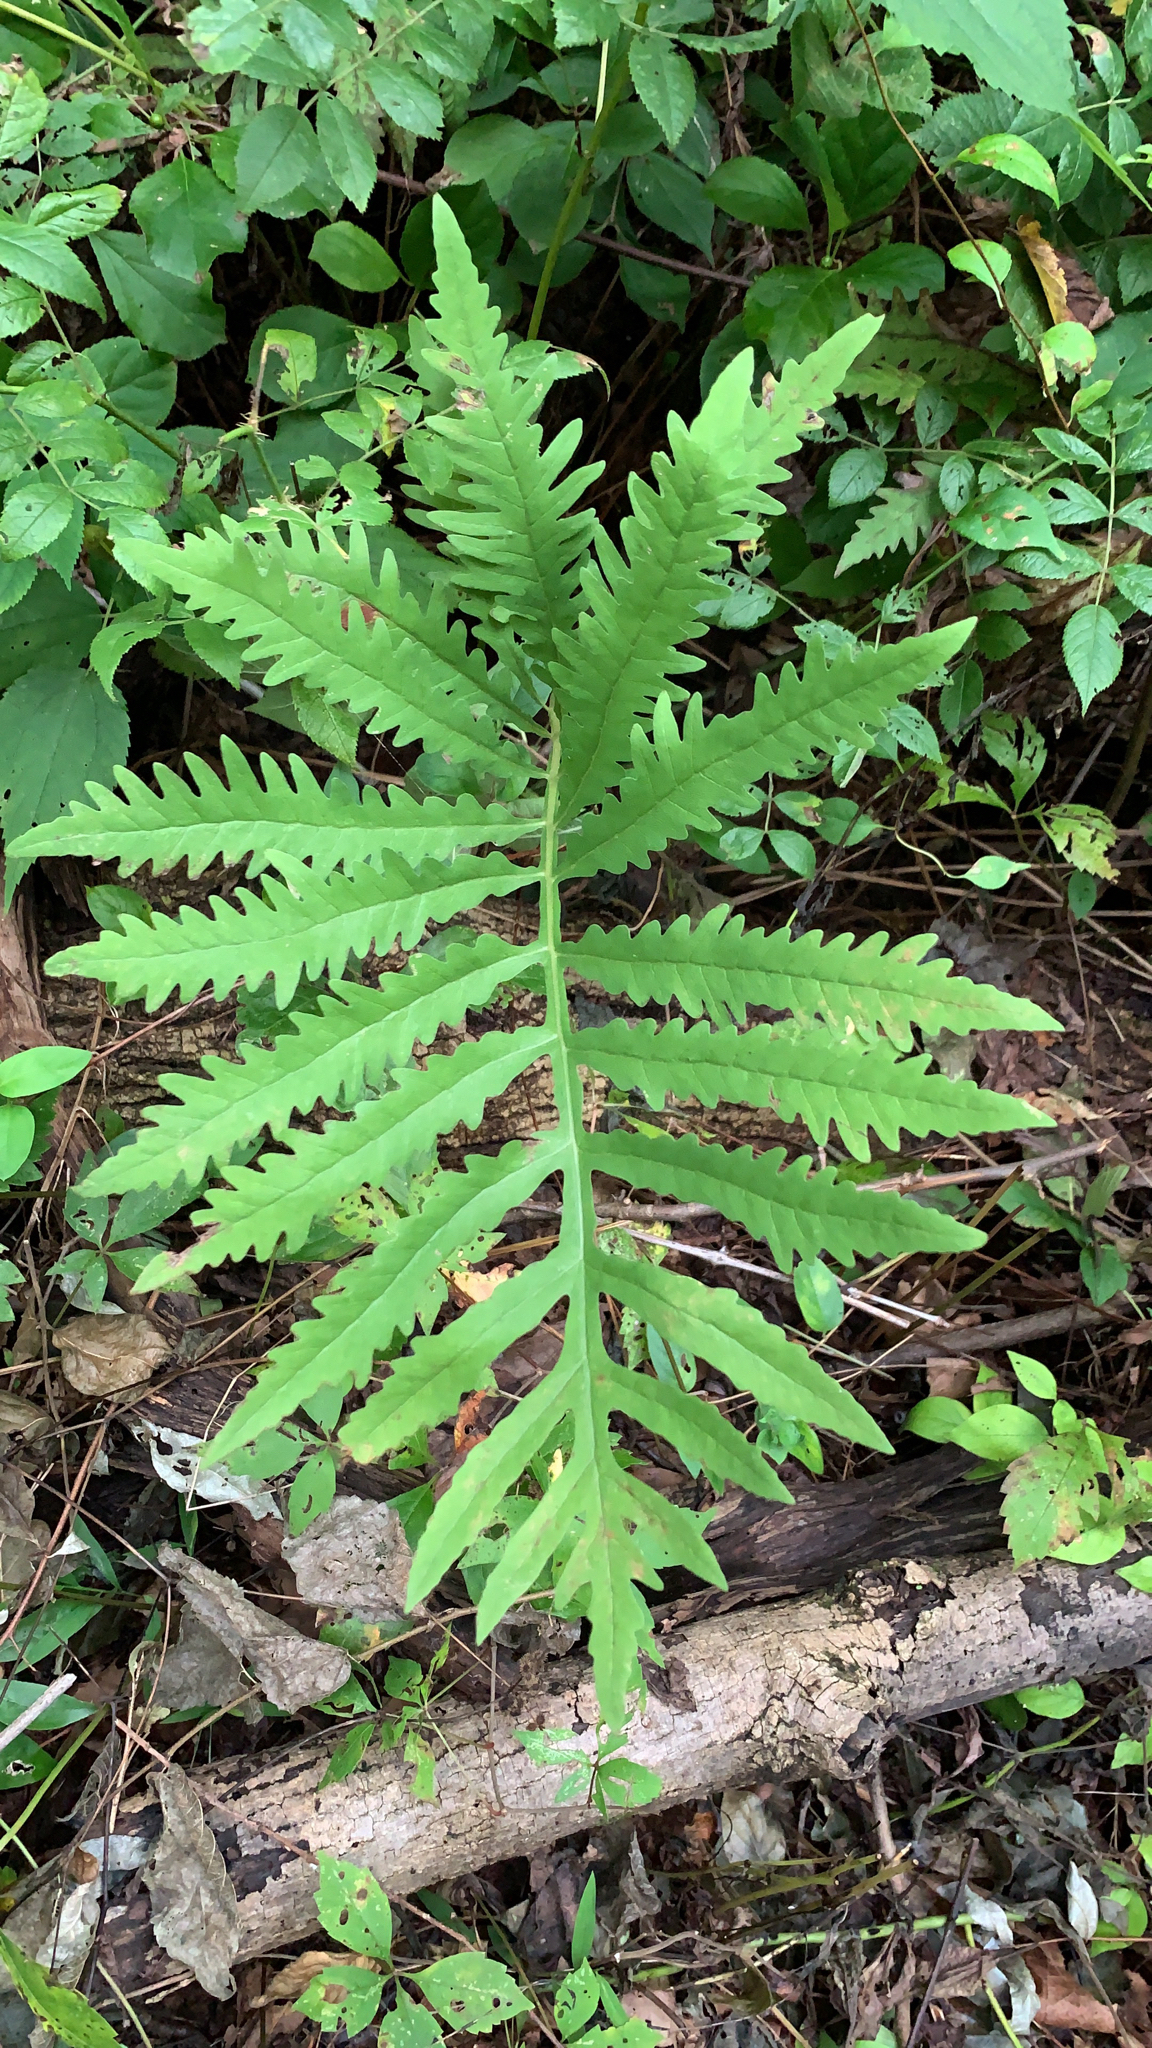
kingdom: Plantae
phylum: Tracheophyta
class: Polypodiopsida
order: Polypodiales
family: Onocleaceae
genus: Onoclea
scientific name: Onoclea sensibilis
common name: Sensitive fern
